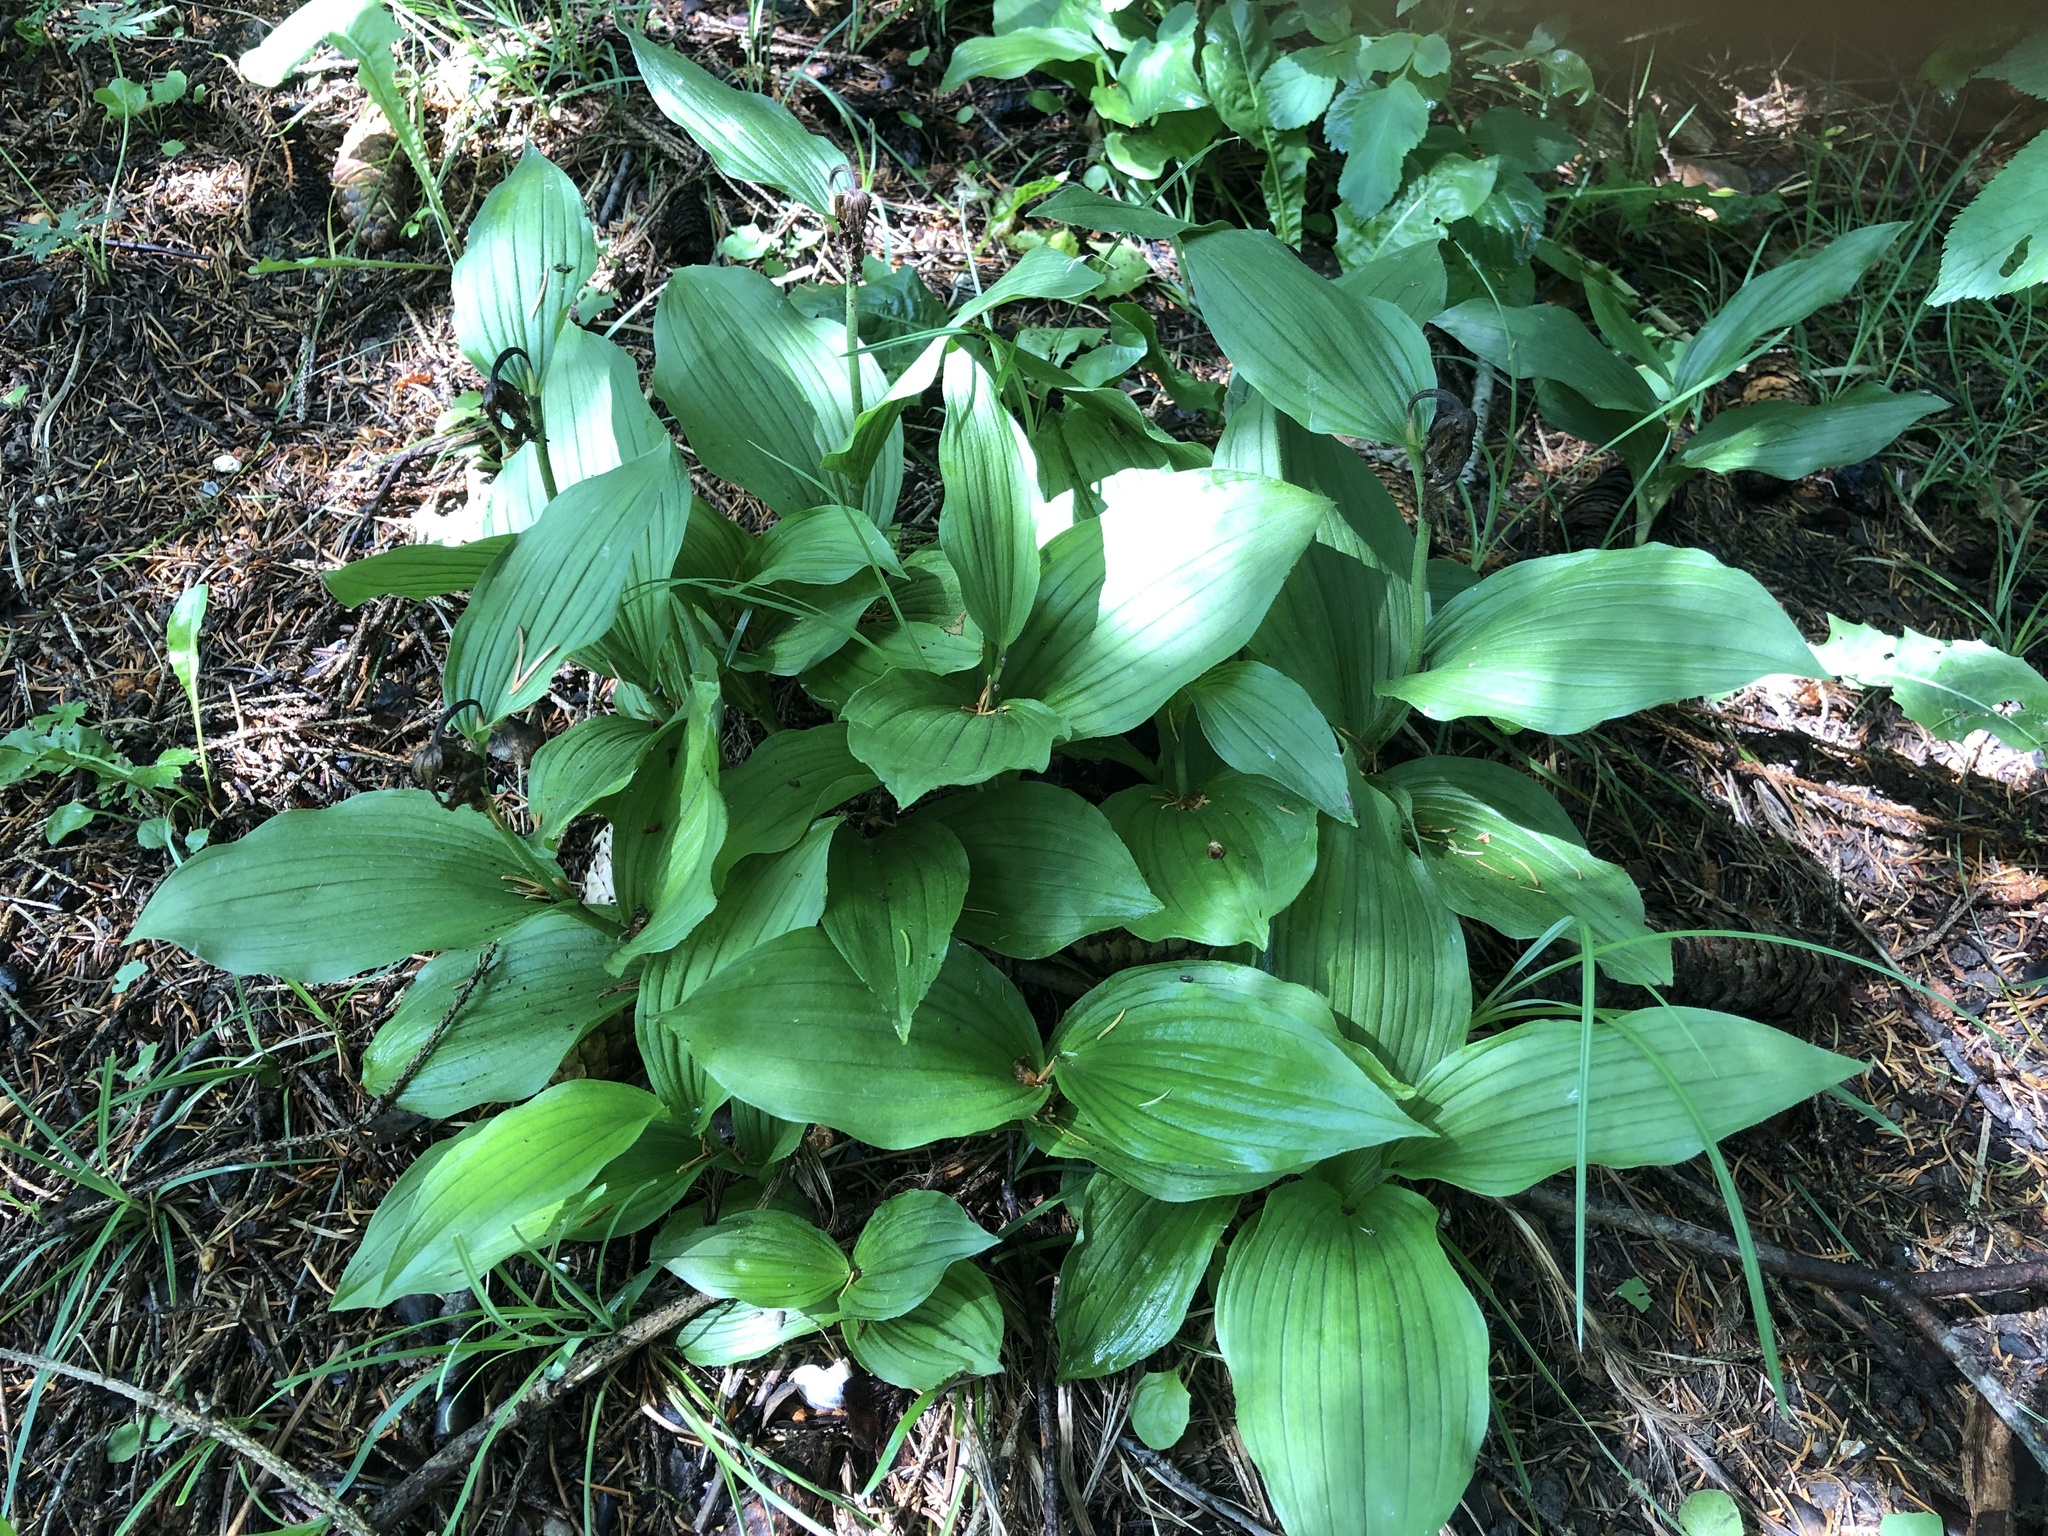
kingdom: Plantae
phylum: Tracheophyta
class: Liliopsida
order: Asparagales
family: Orchidaceae
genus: Cypripedium
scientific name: Cypripedium calceolus
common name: Lady's-slipper
